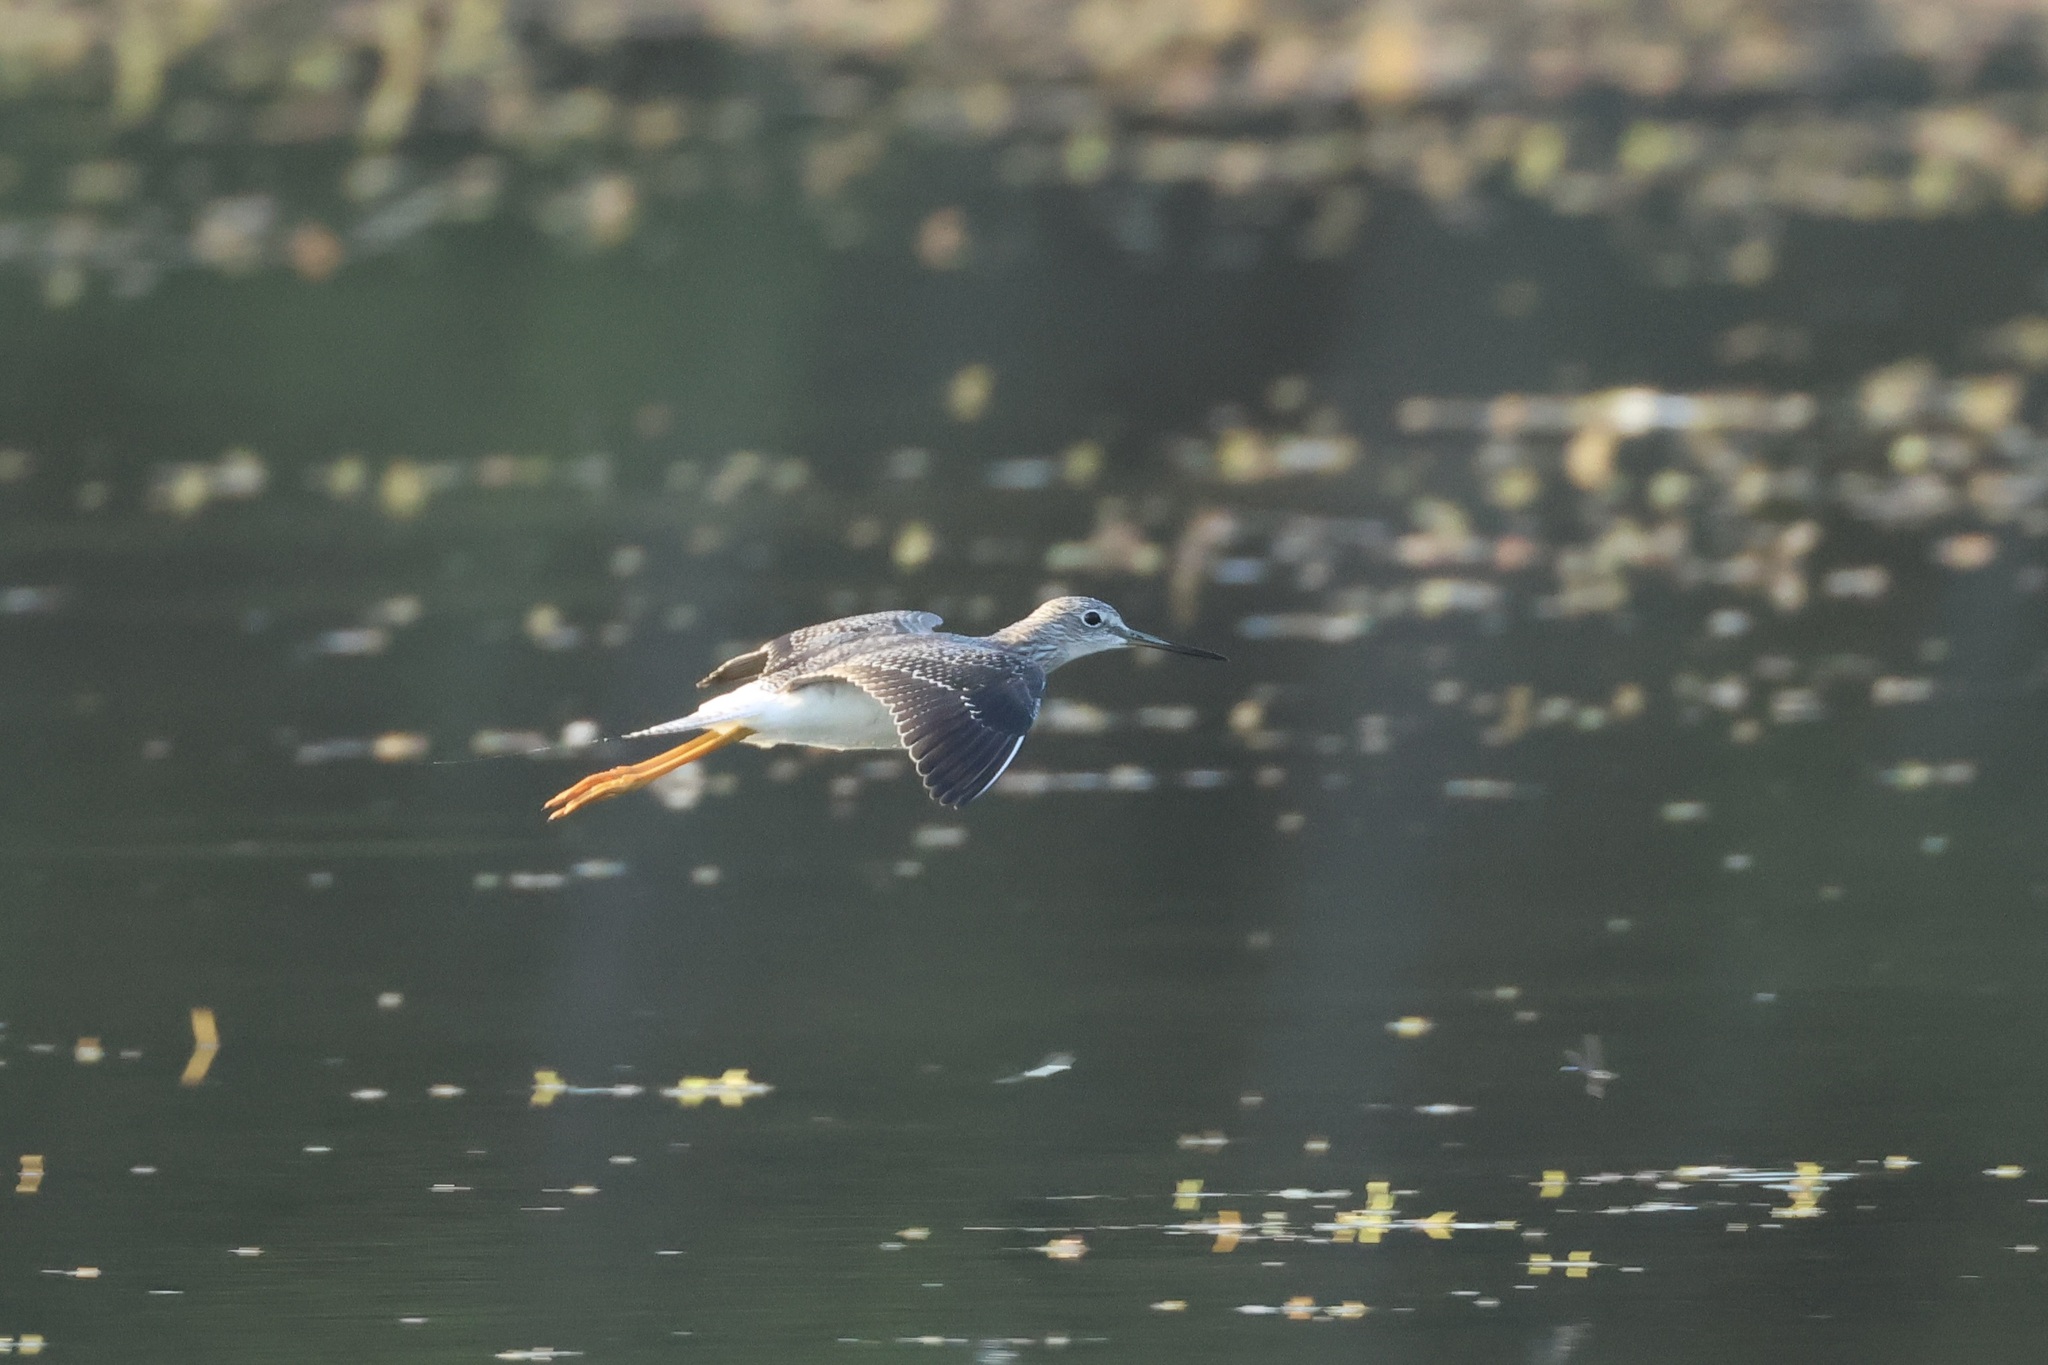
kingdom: Animalia
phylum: Chordata
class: Aves
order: Charadriiformes
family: Scolopacidae
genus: Tringa
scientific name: Tringa melanoleuca
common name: Greater yellowlegs
